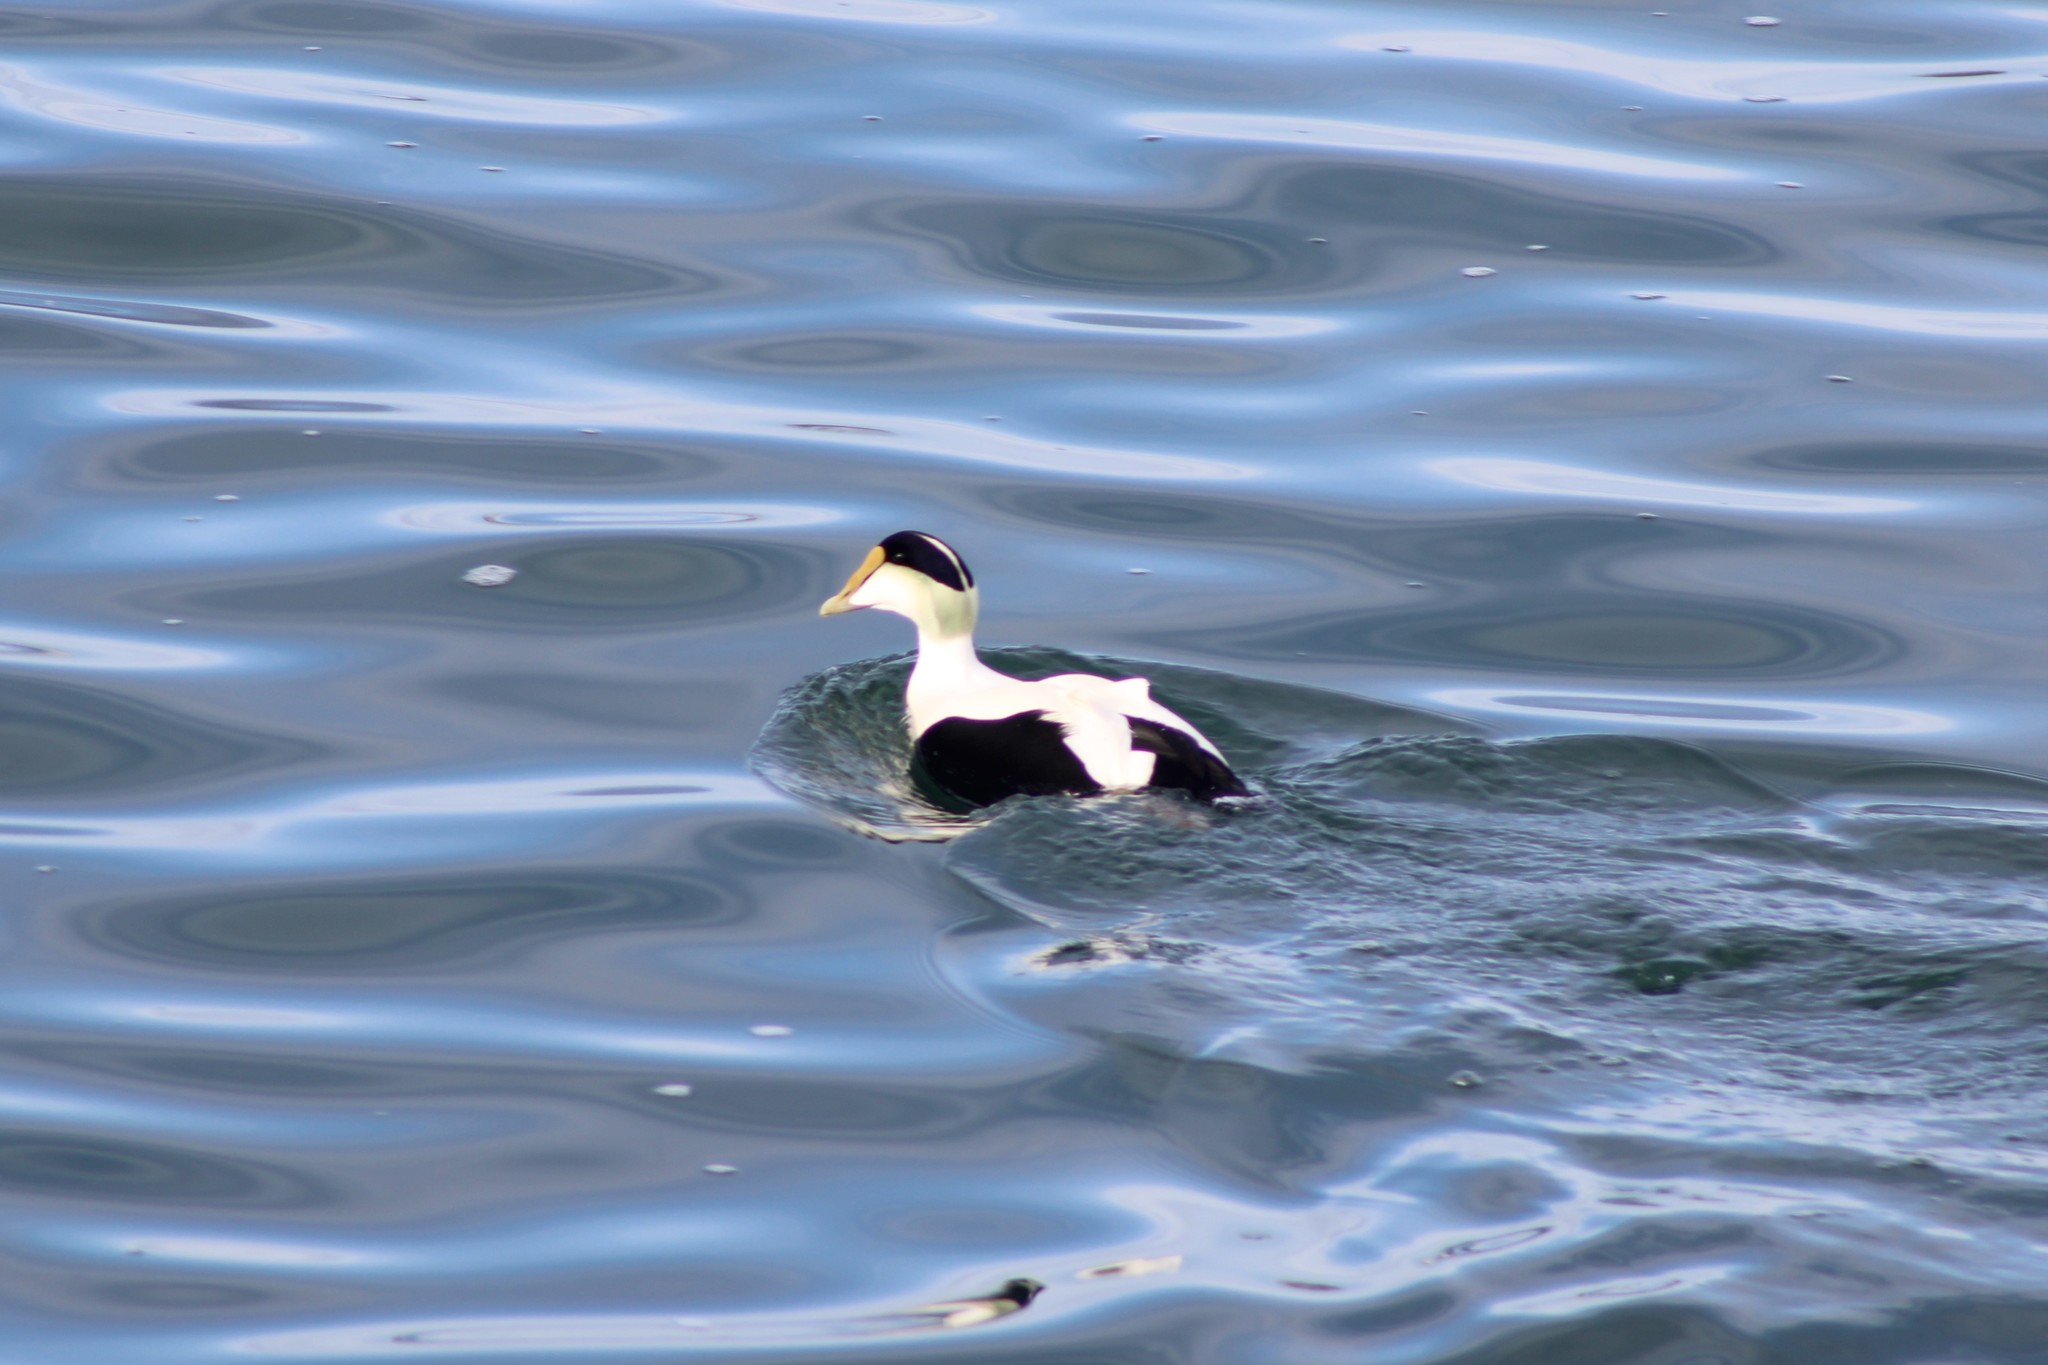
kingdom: Animalia
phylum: Chordata
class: Aves
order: Anseriformes
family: Anatidae
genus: Somateria
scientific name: Somateria mollissima
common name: Common eider
